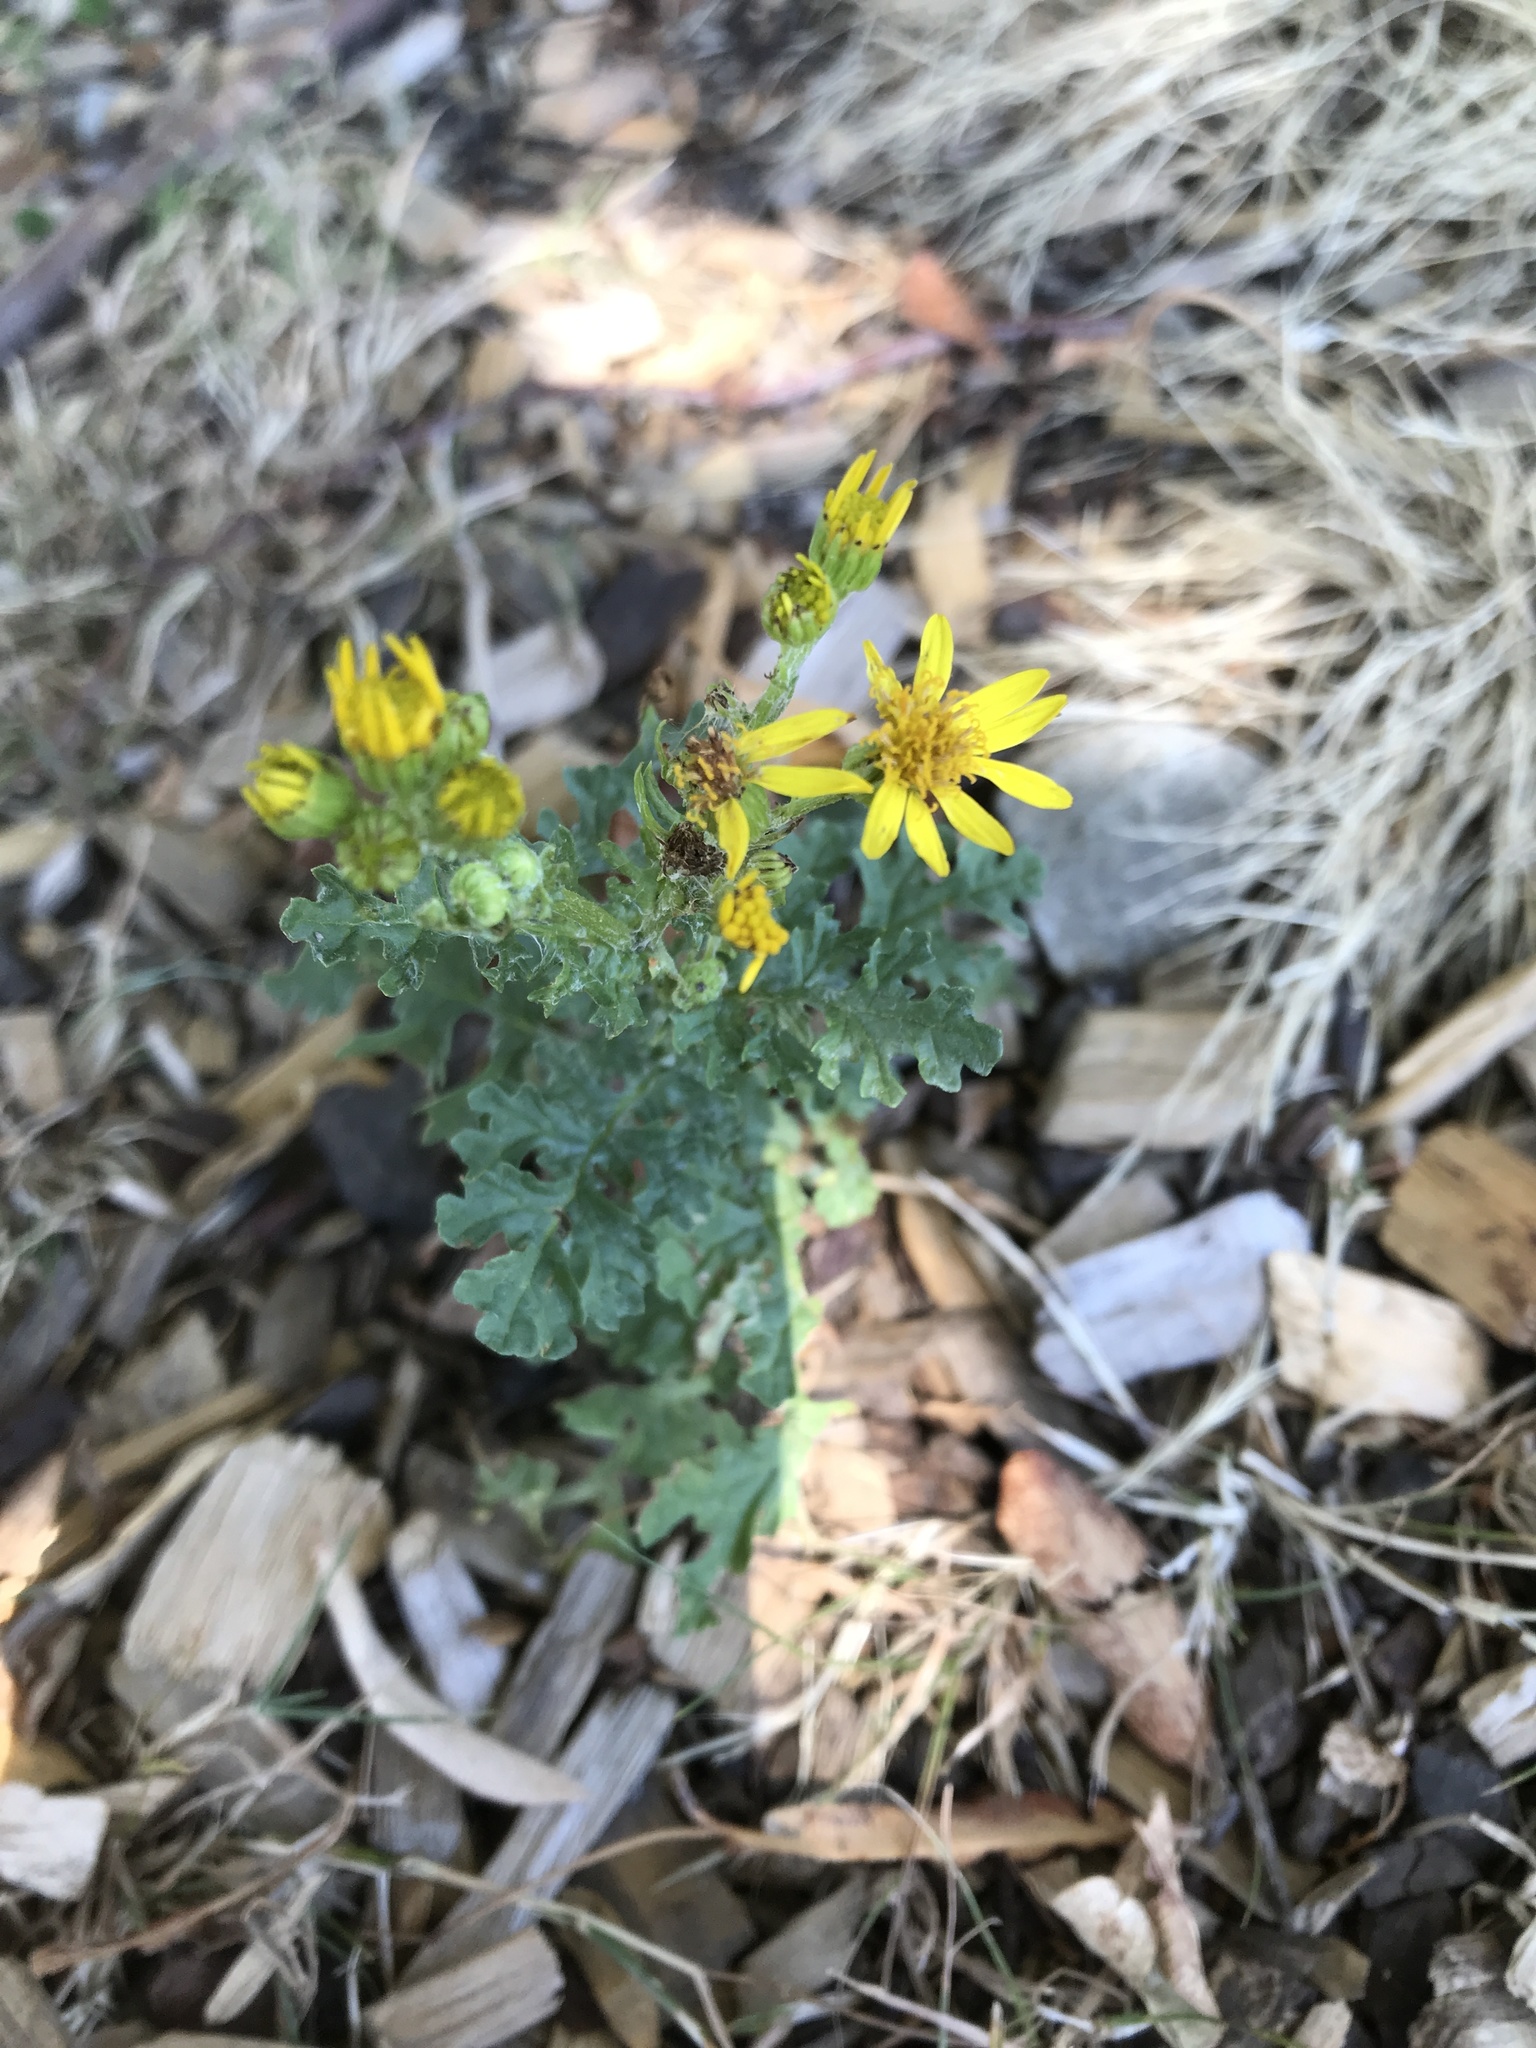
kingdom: Plantae
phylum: Tracheophyta
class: Magnoliopsida
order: Asterales
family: Asteraceae
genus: Jacobaea
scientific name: Jacobaea vulgaris
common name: Stinking willie
